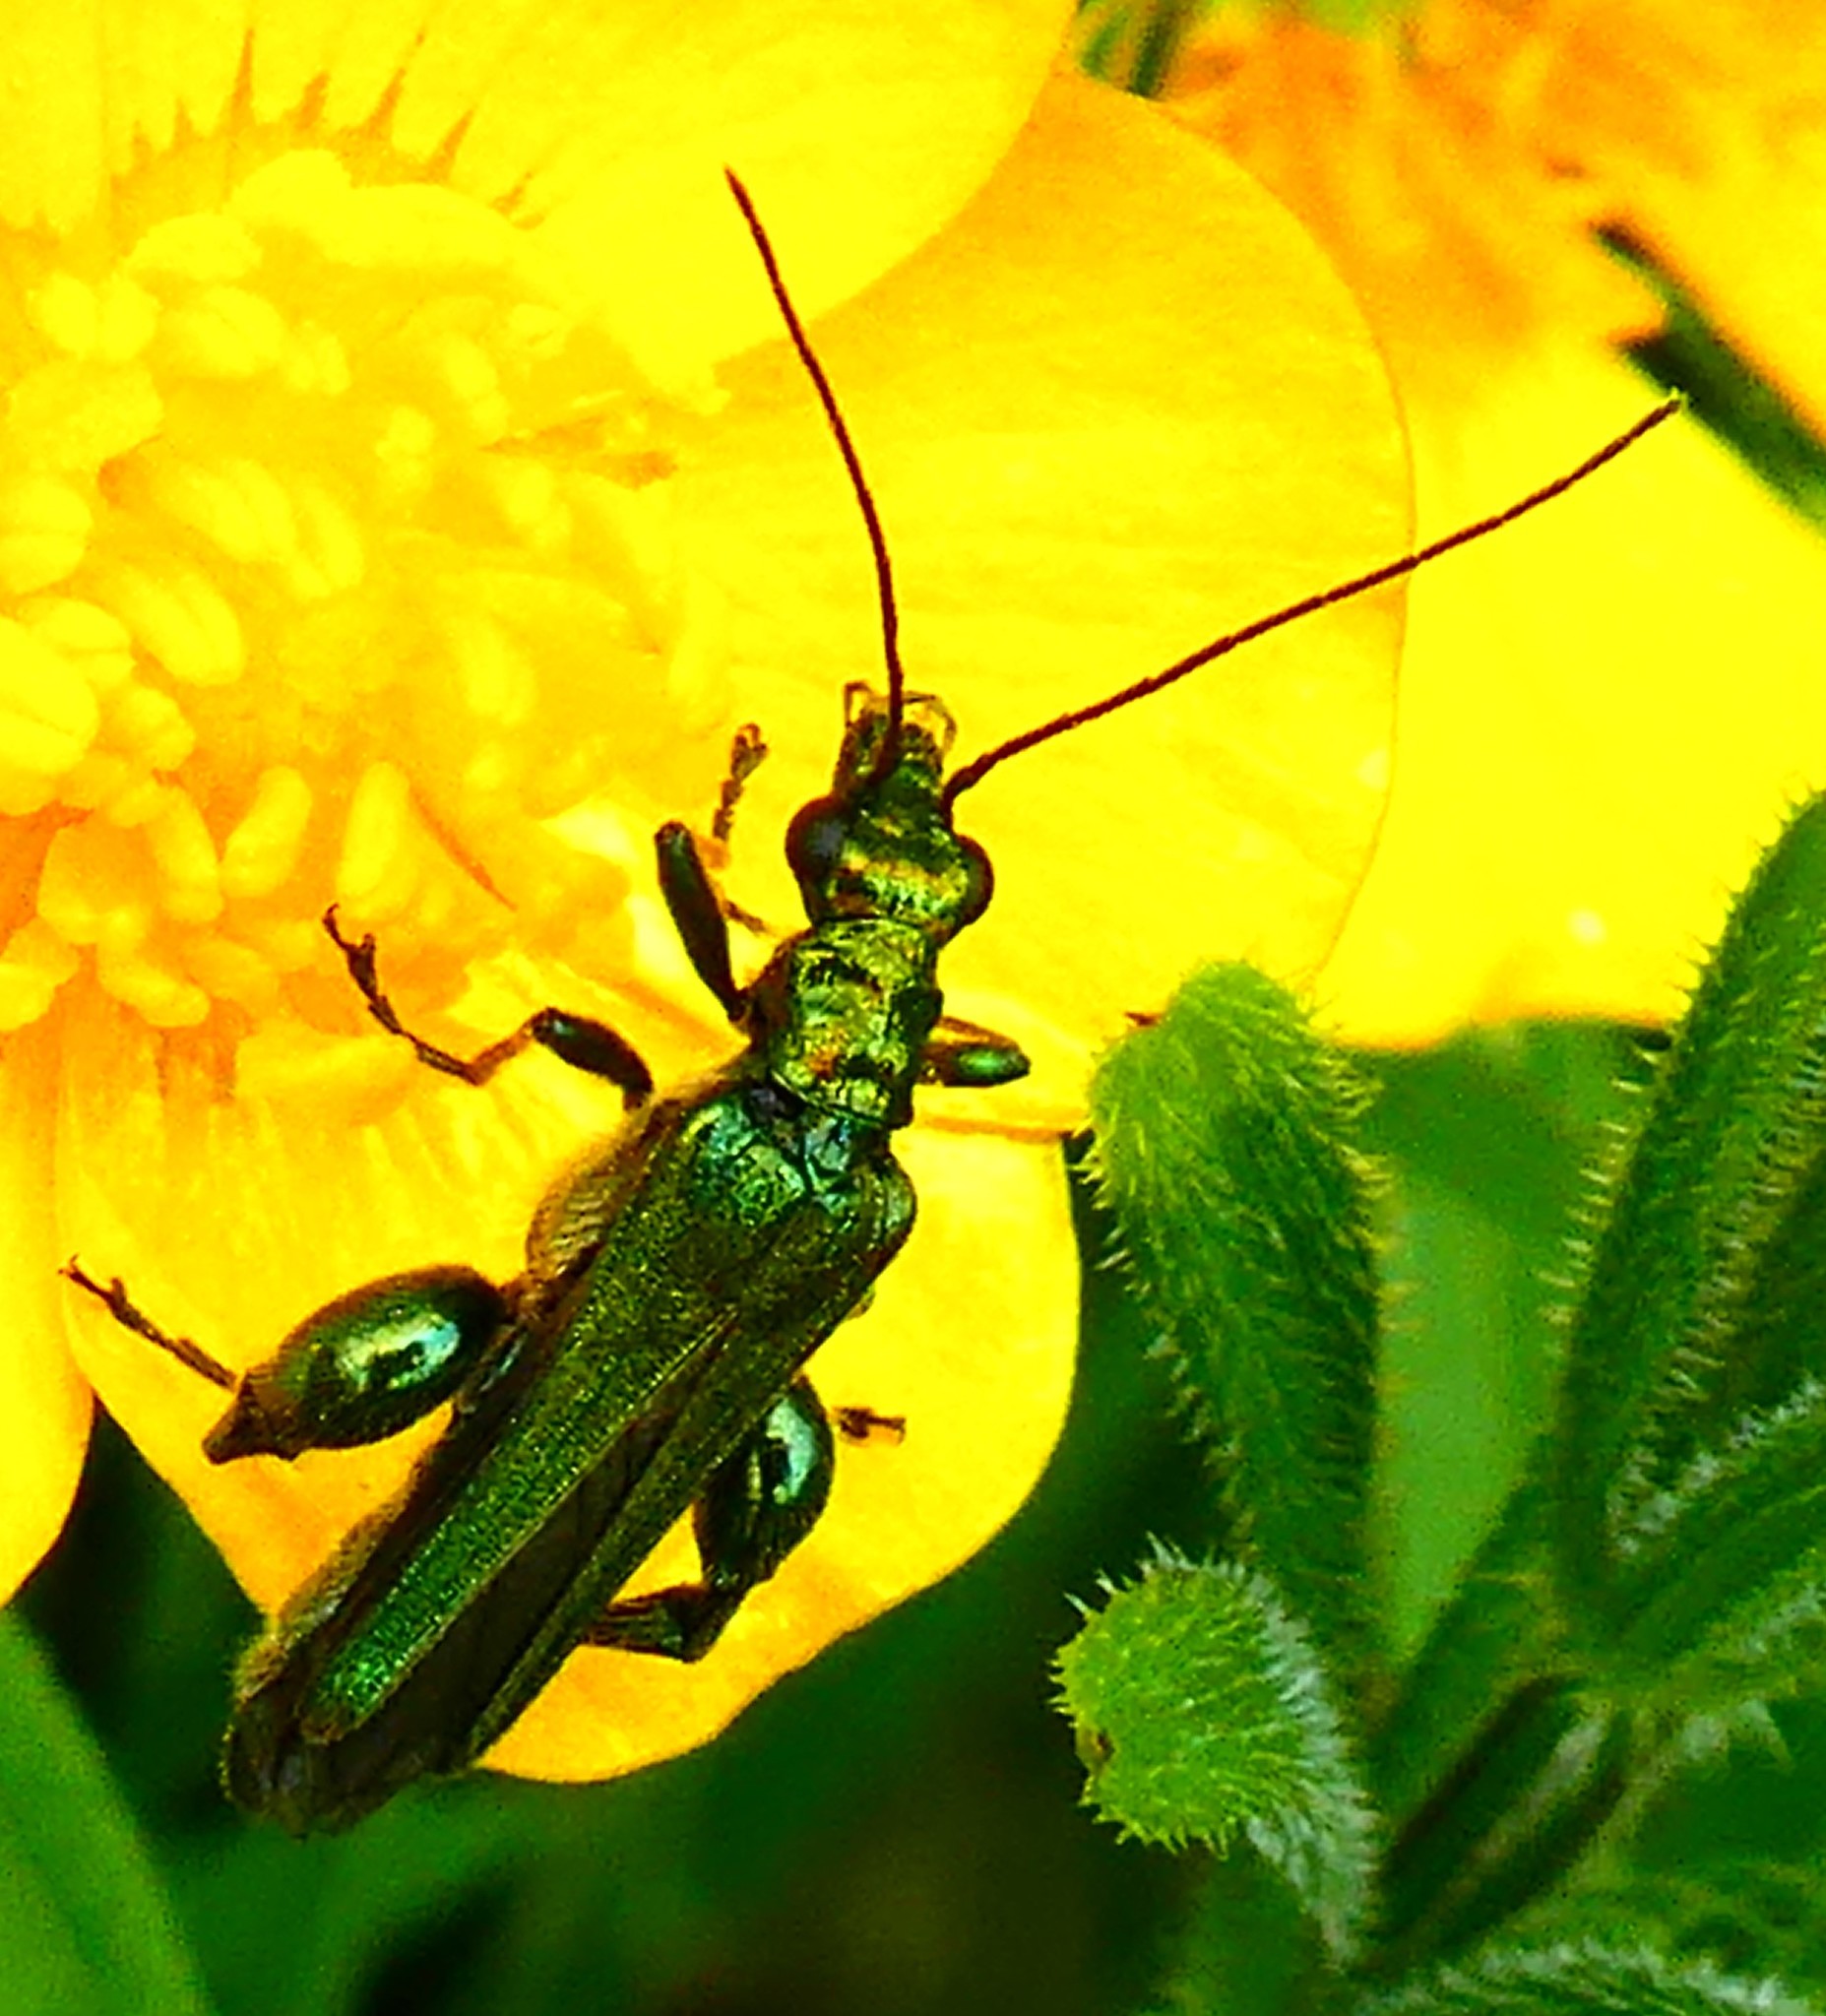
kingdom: Animalia
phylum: Arthropoda
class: Insecta
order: Coleoptera
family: Oedemeridae
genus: Oedemera
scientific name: Oedemera nobilis
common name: Swollen-thighed beetle
